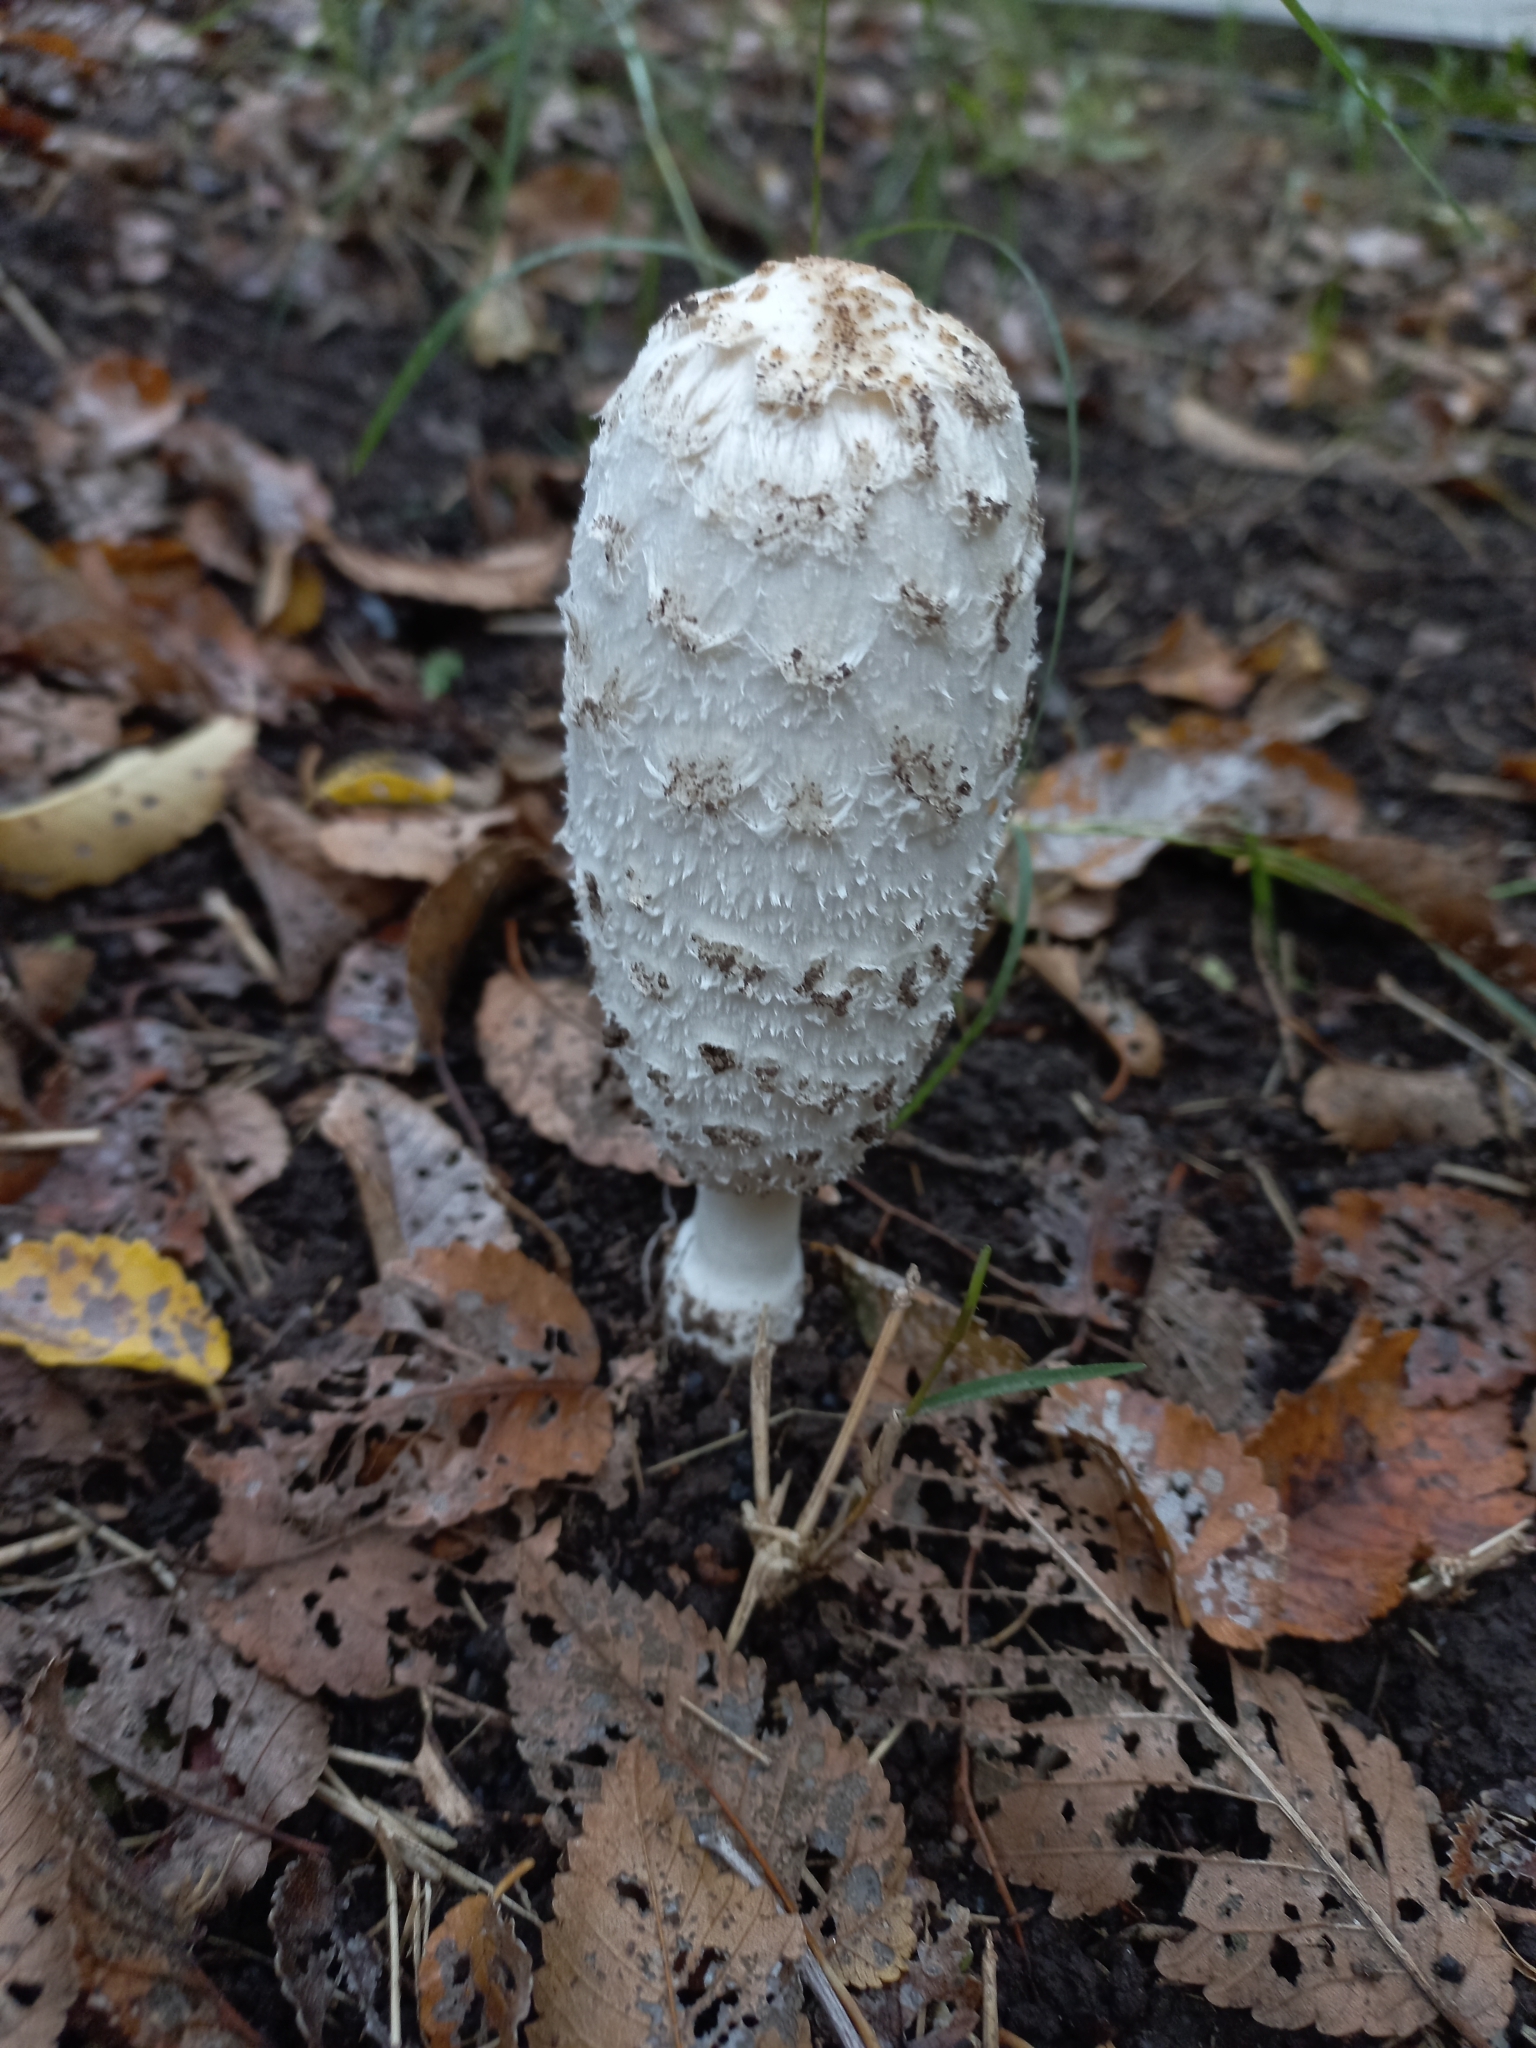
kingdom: Fungi
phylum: Basidiomycota
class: Agaricomycetes
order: Agaricales
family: Agaricaceae
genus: Coprinus
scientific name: Coprinus comatus
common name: Lawyer's wig
